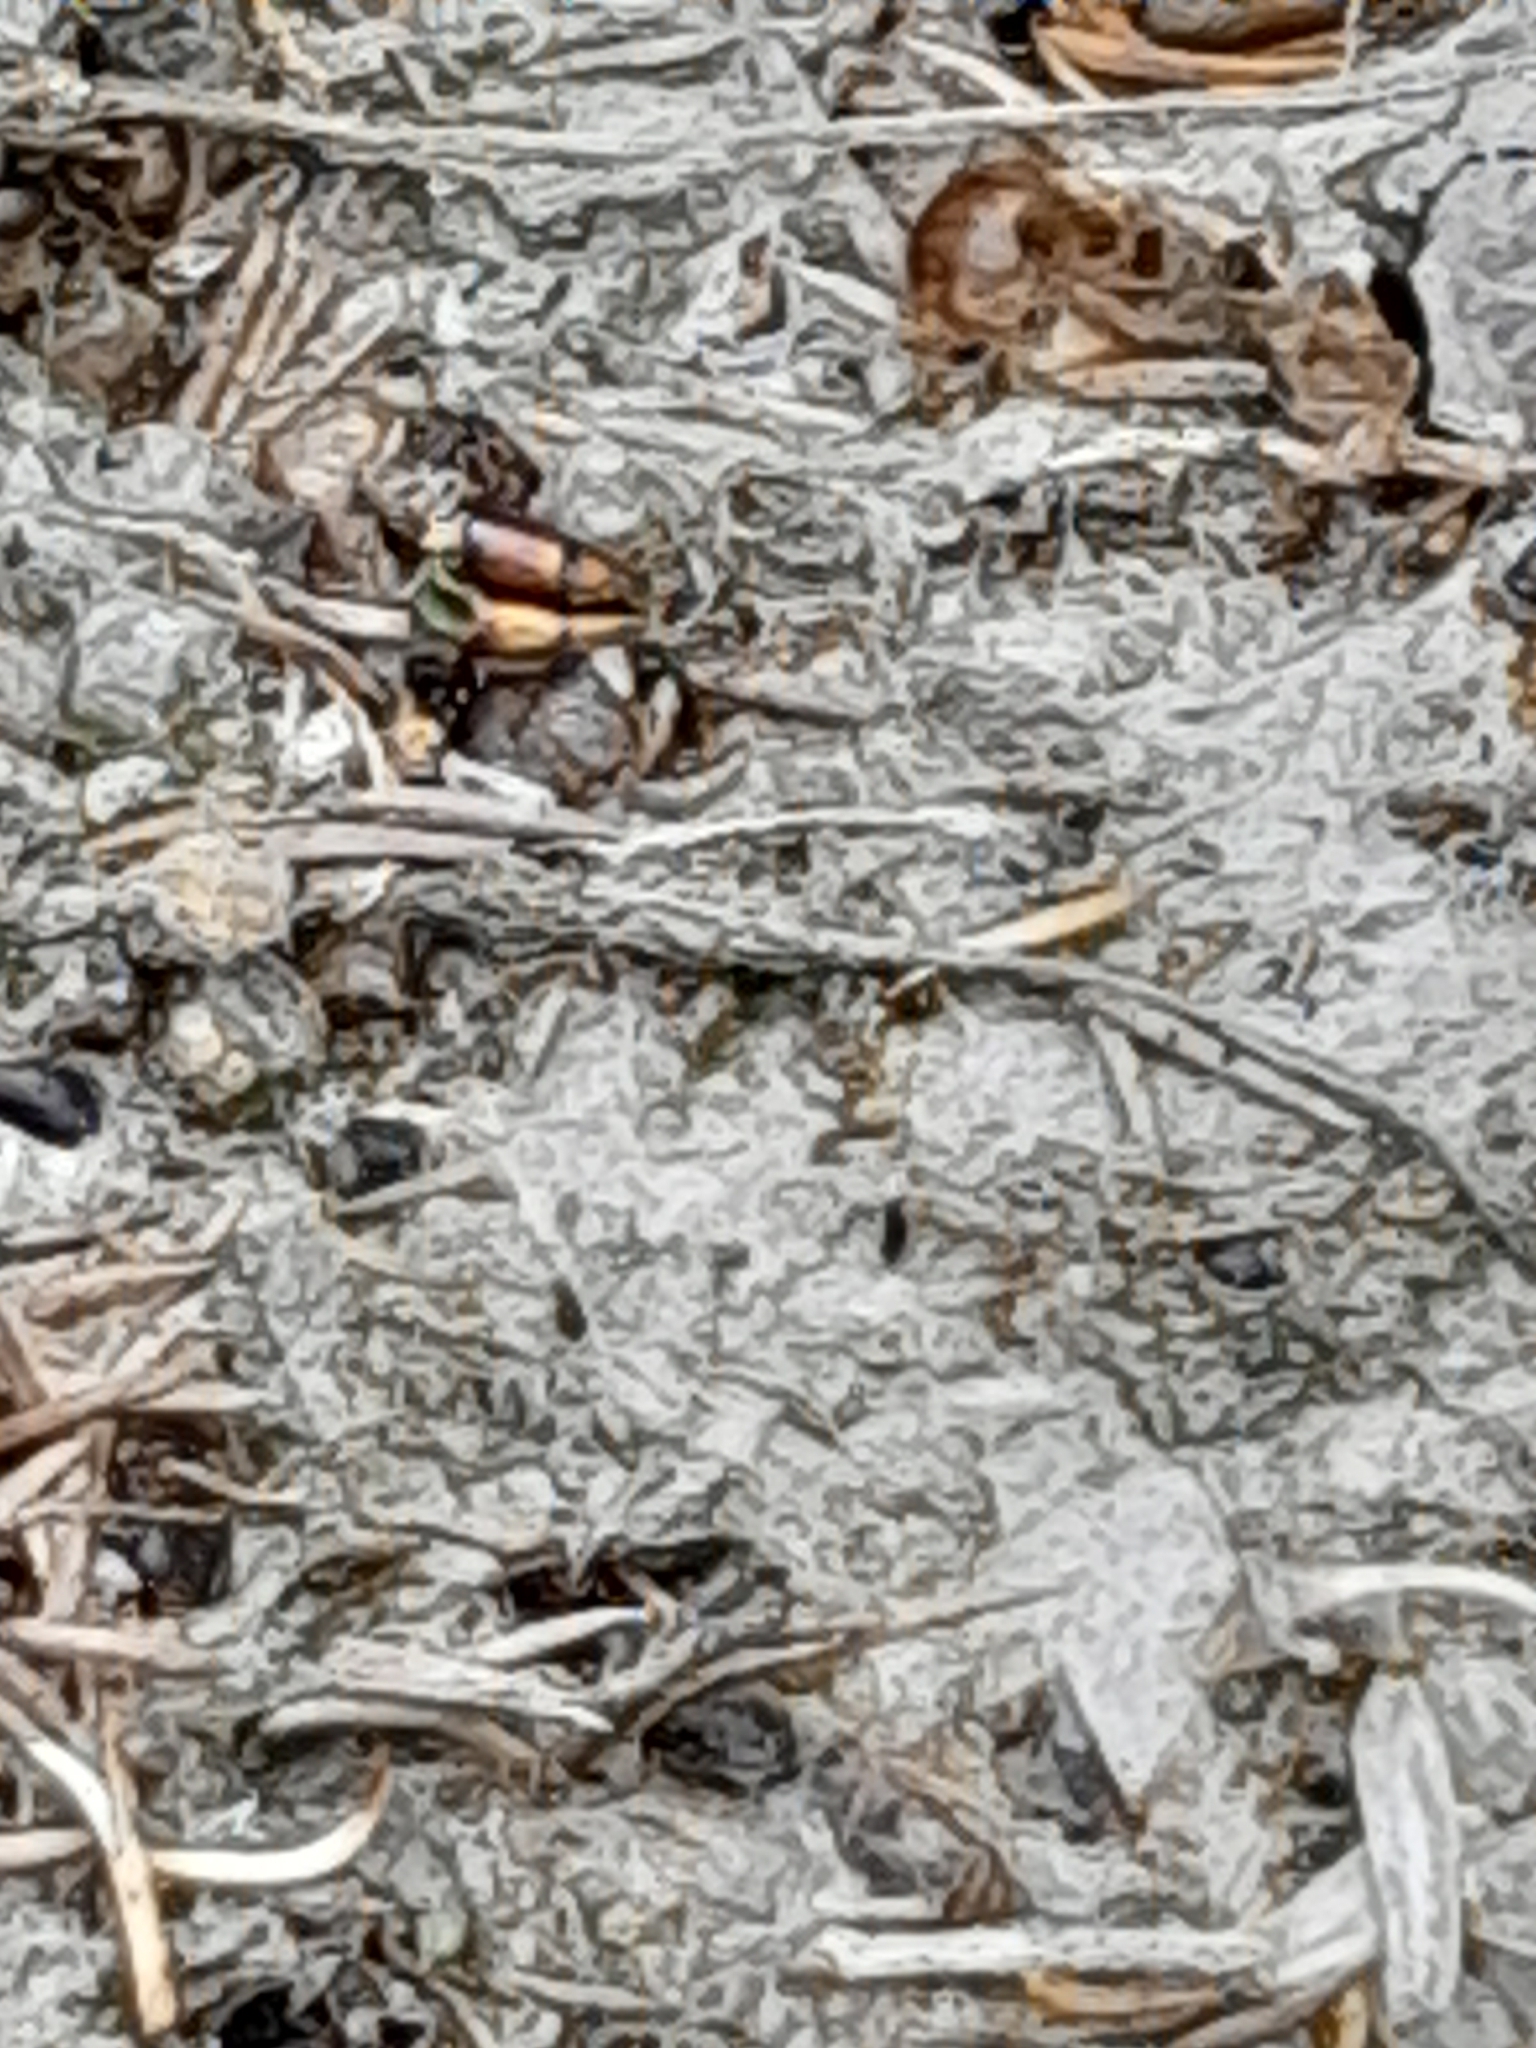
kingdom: Animalia
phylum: Arthropoda
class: Arachnida
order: Araneae
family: Eresidae
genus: Stegodyphus
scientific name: Stegodyphus dumicola
